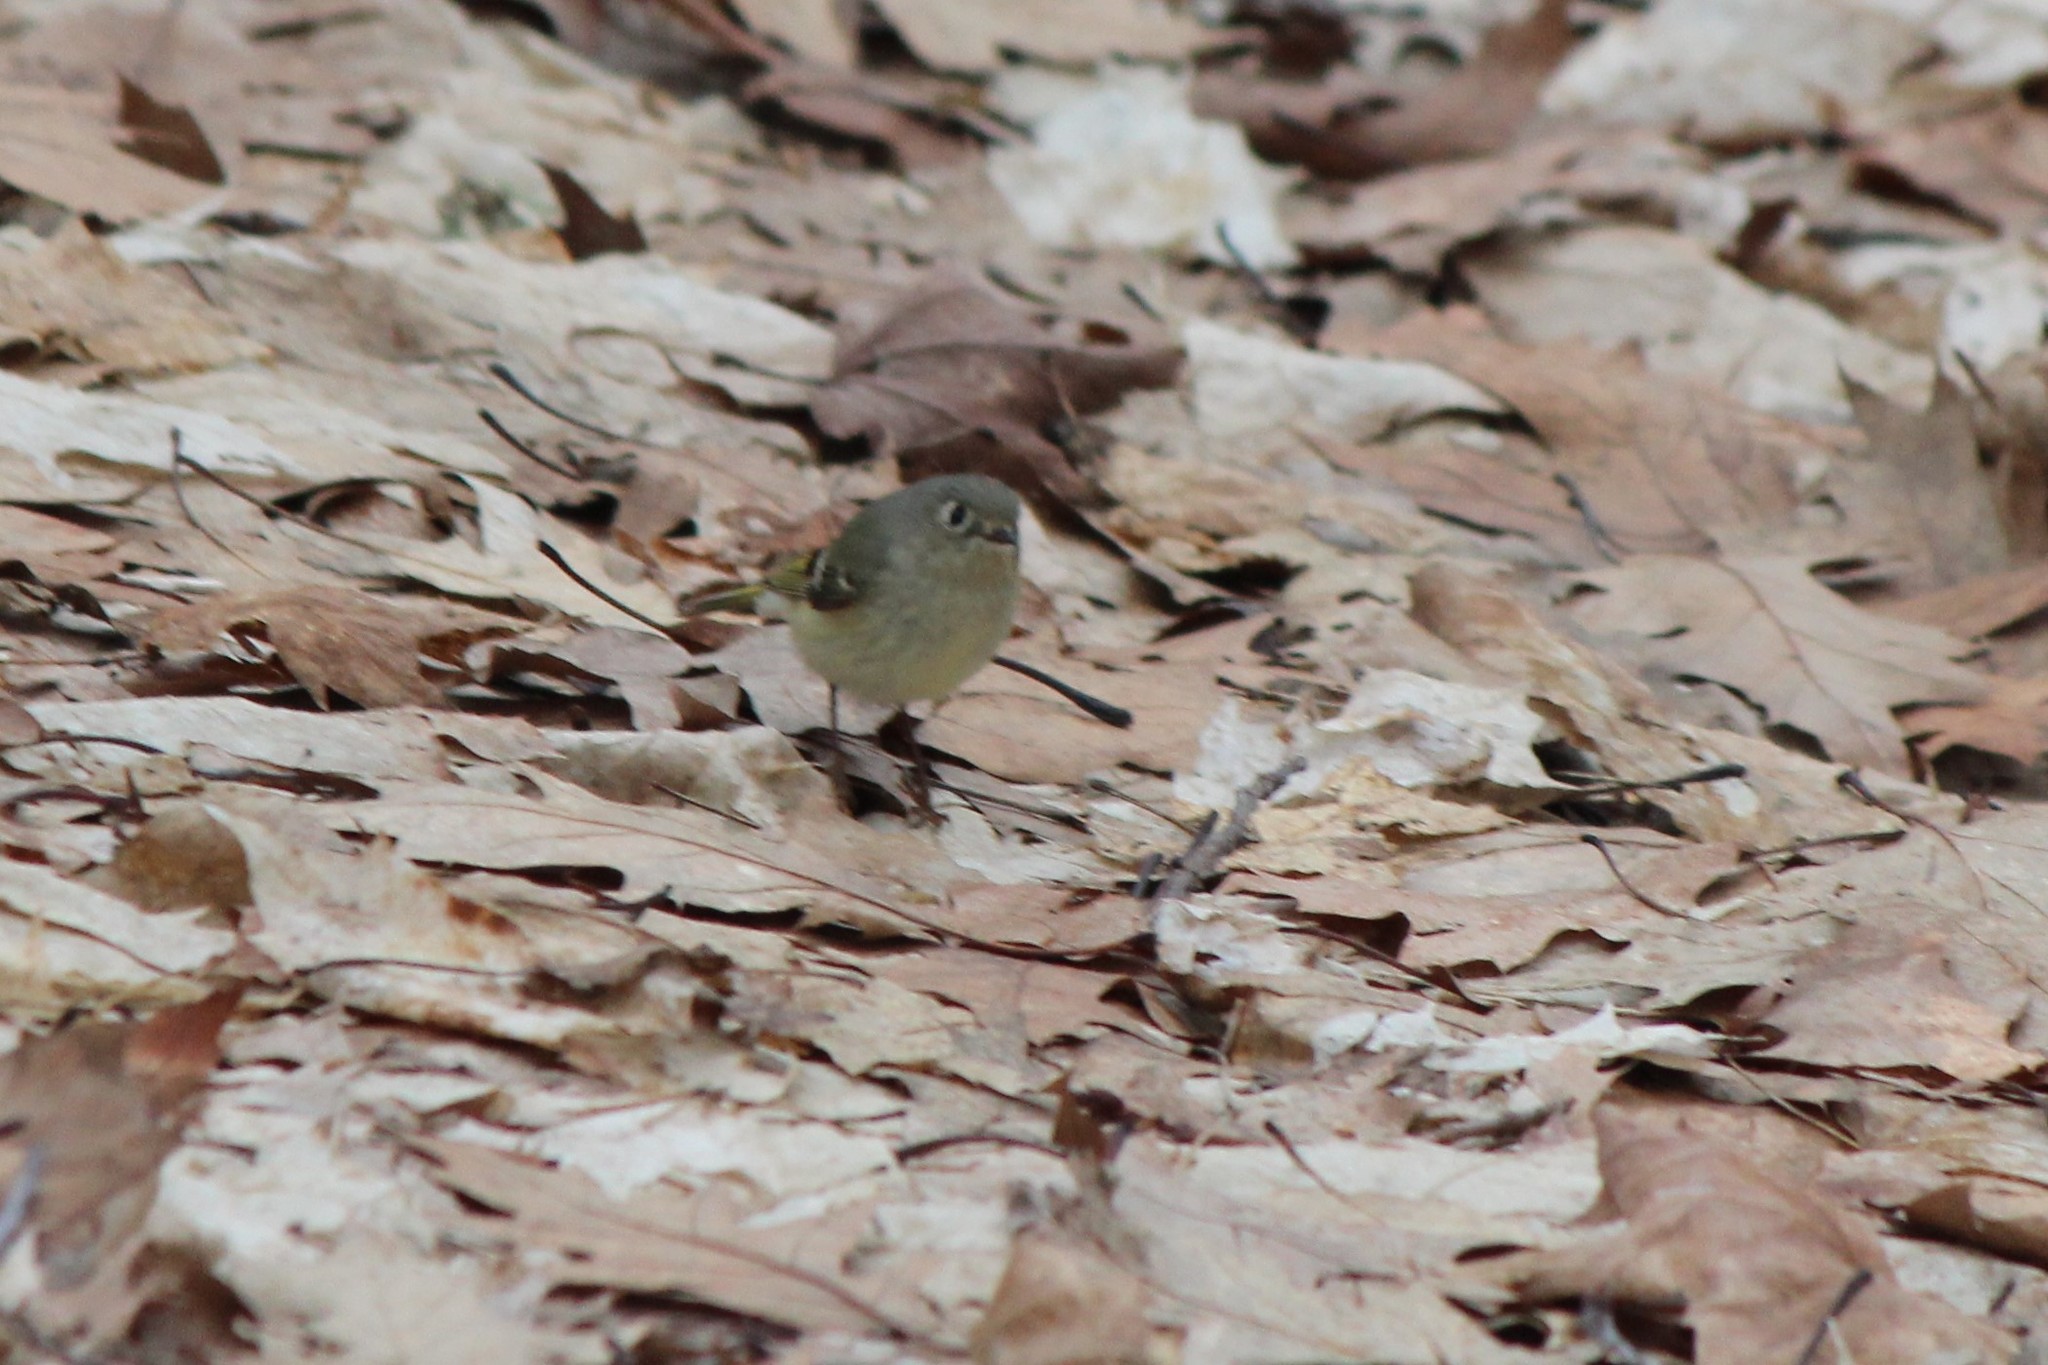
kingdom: Animalia
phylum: Chordata
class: Aves
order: Passeriformes
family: Regulidae
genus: Regulus
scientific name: Regulus calendula
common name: Ruby-crowned kinglet
